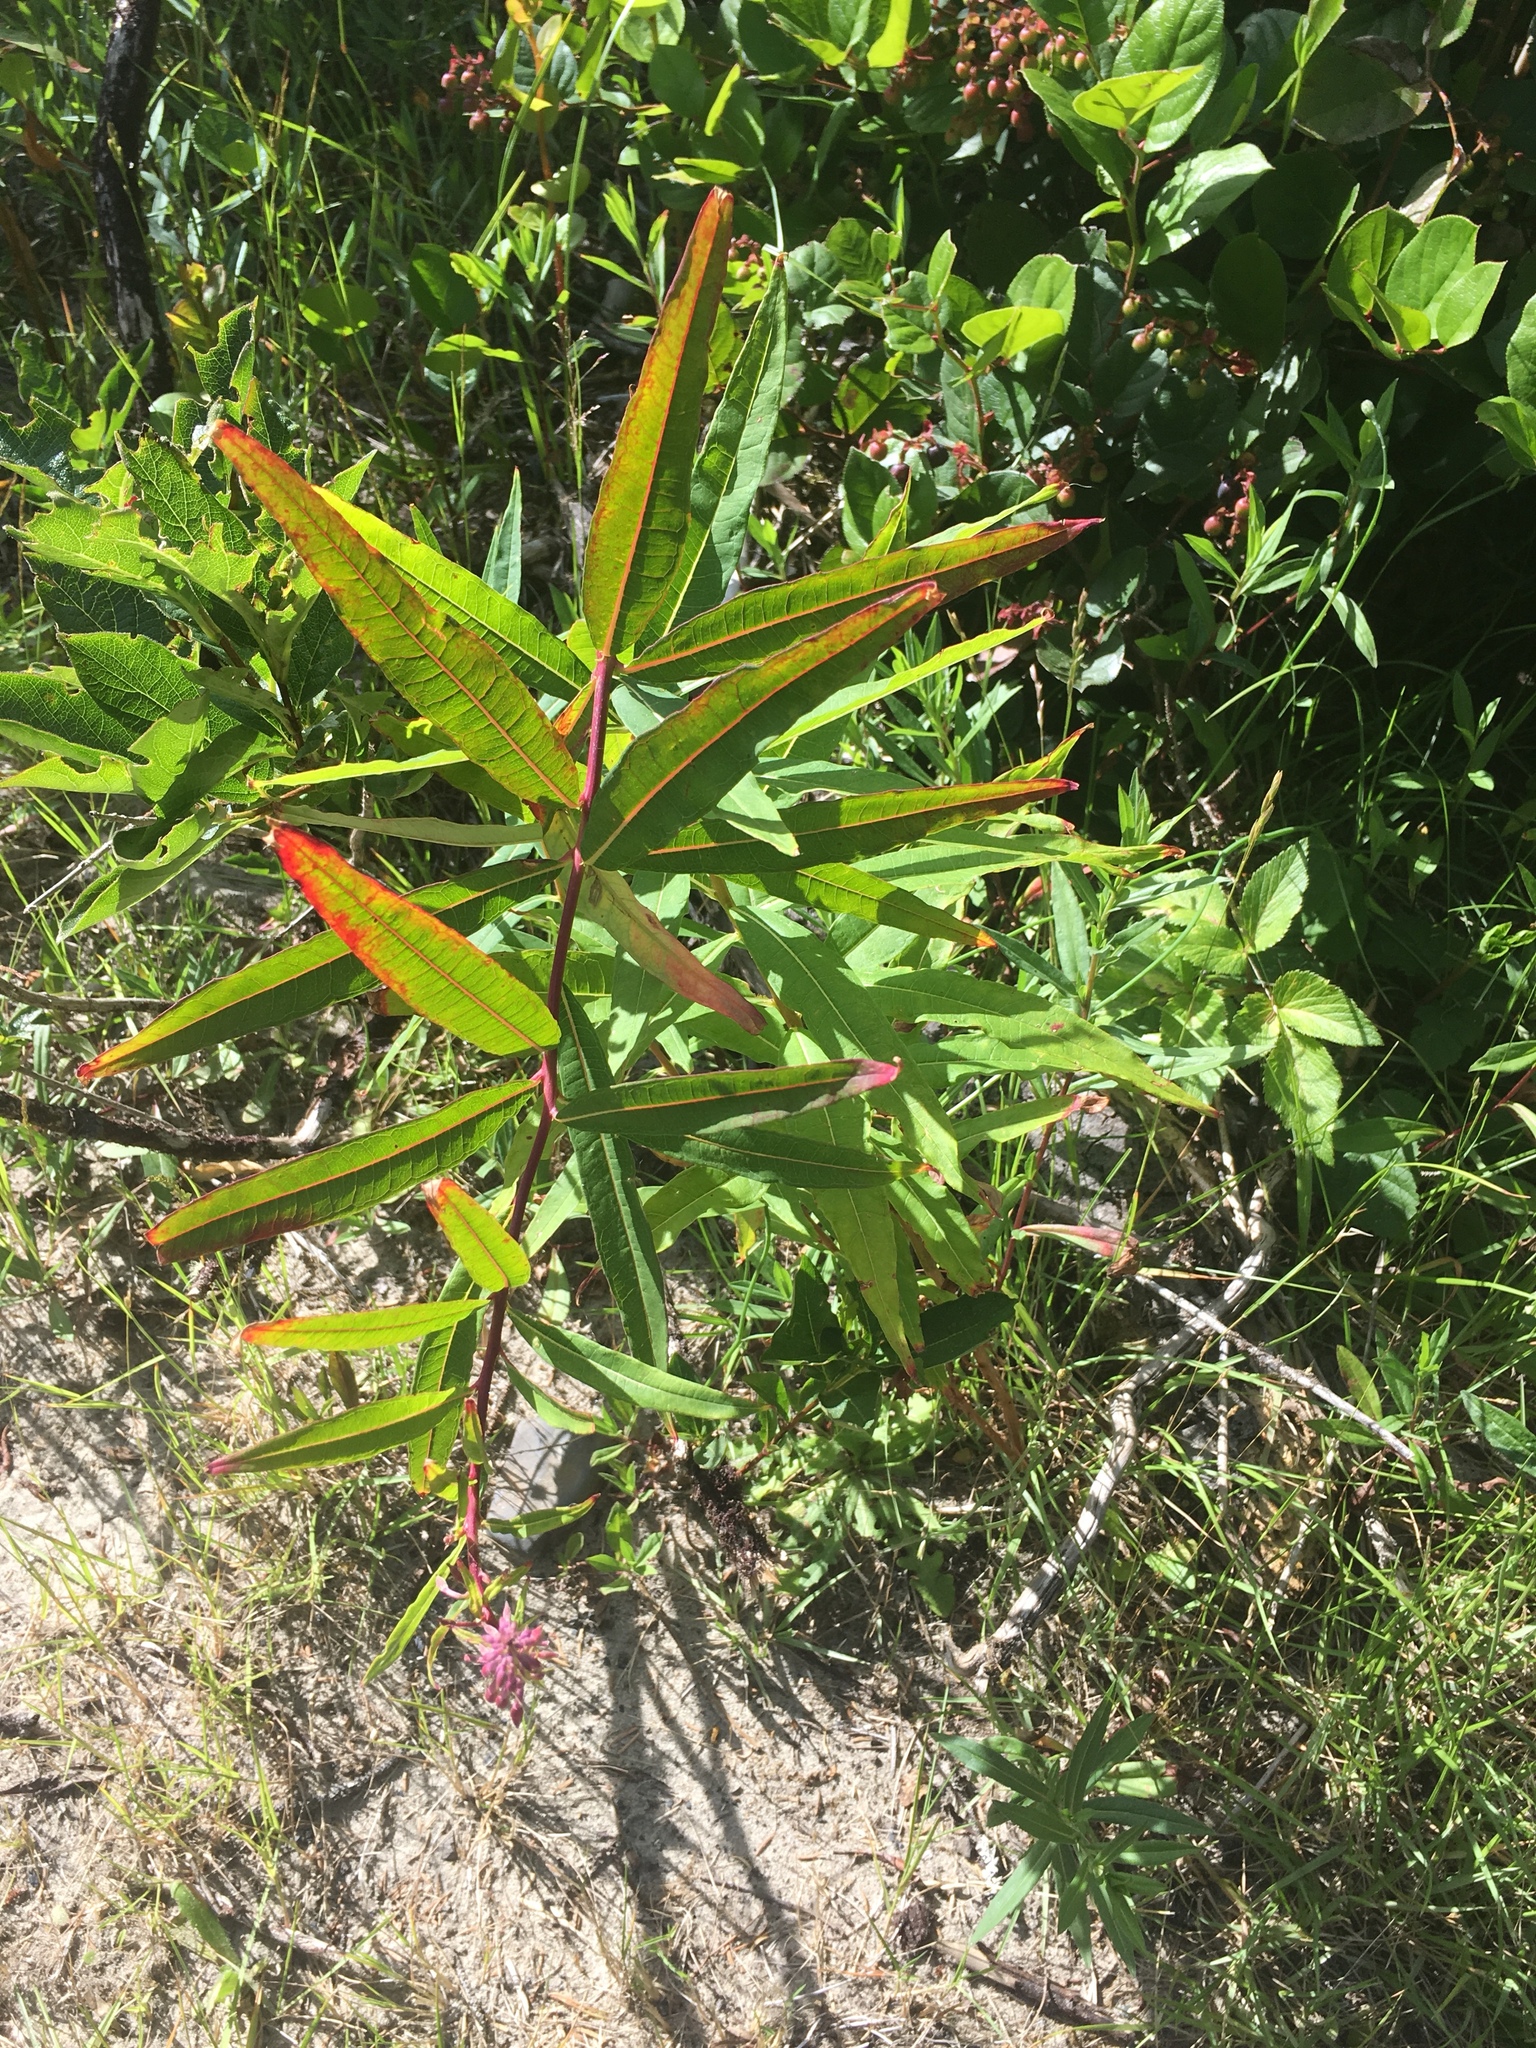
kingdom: Plantae
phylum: Tracheophyta
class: Magnoliopsida
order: Myrtales
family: Onagraceae
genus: Chamaenerion
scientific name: Chamaenerion angustifolium
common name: Fireweed
